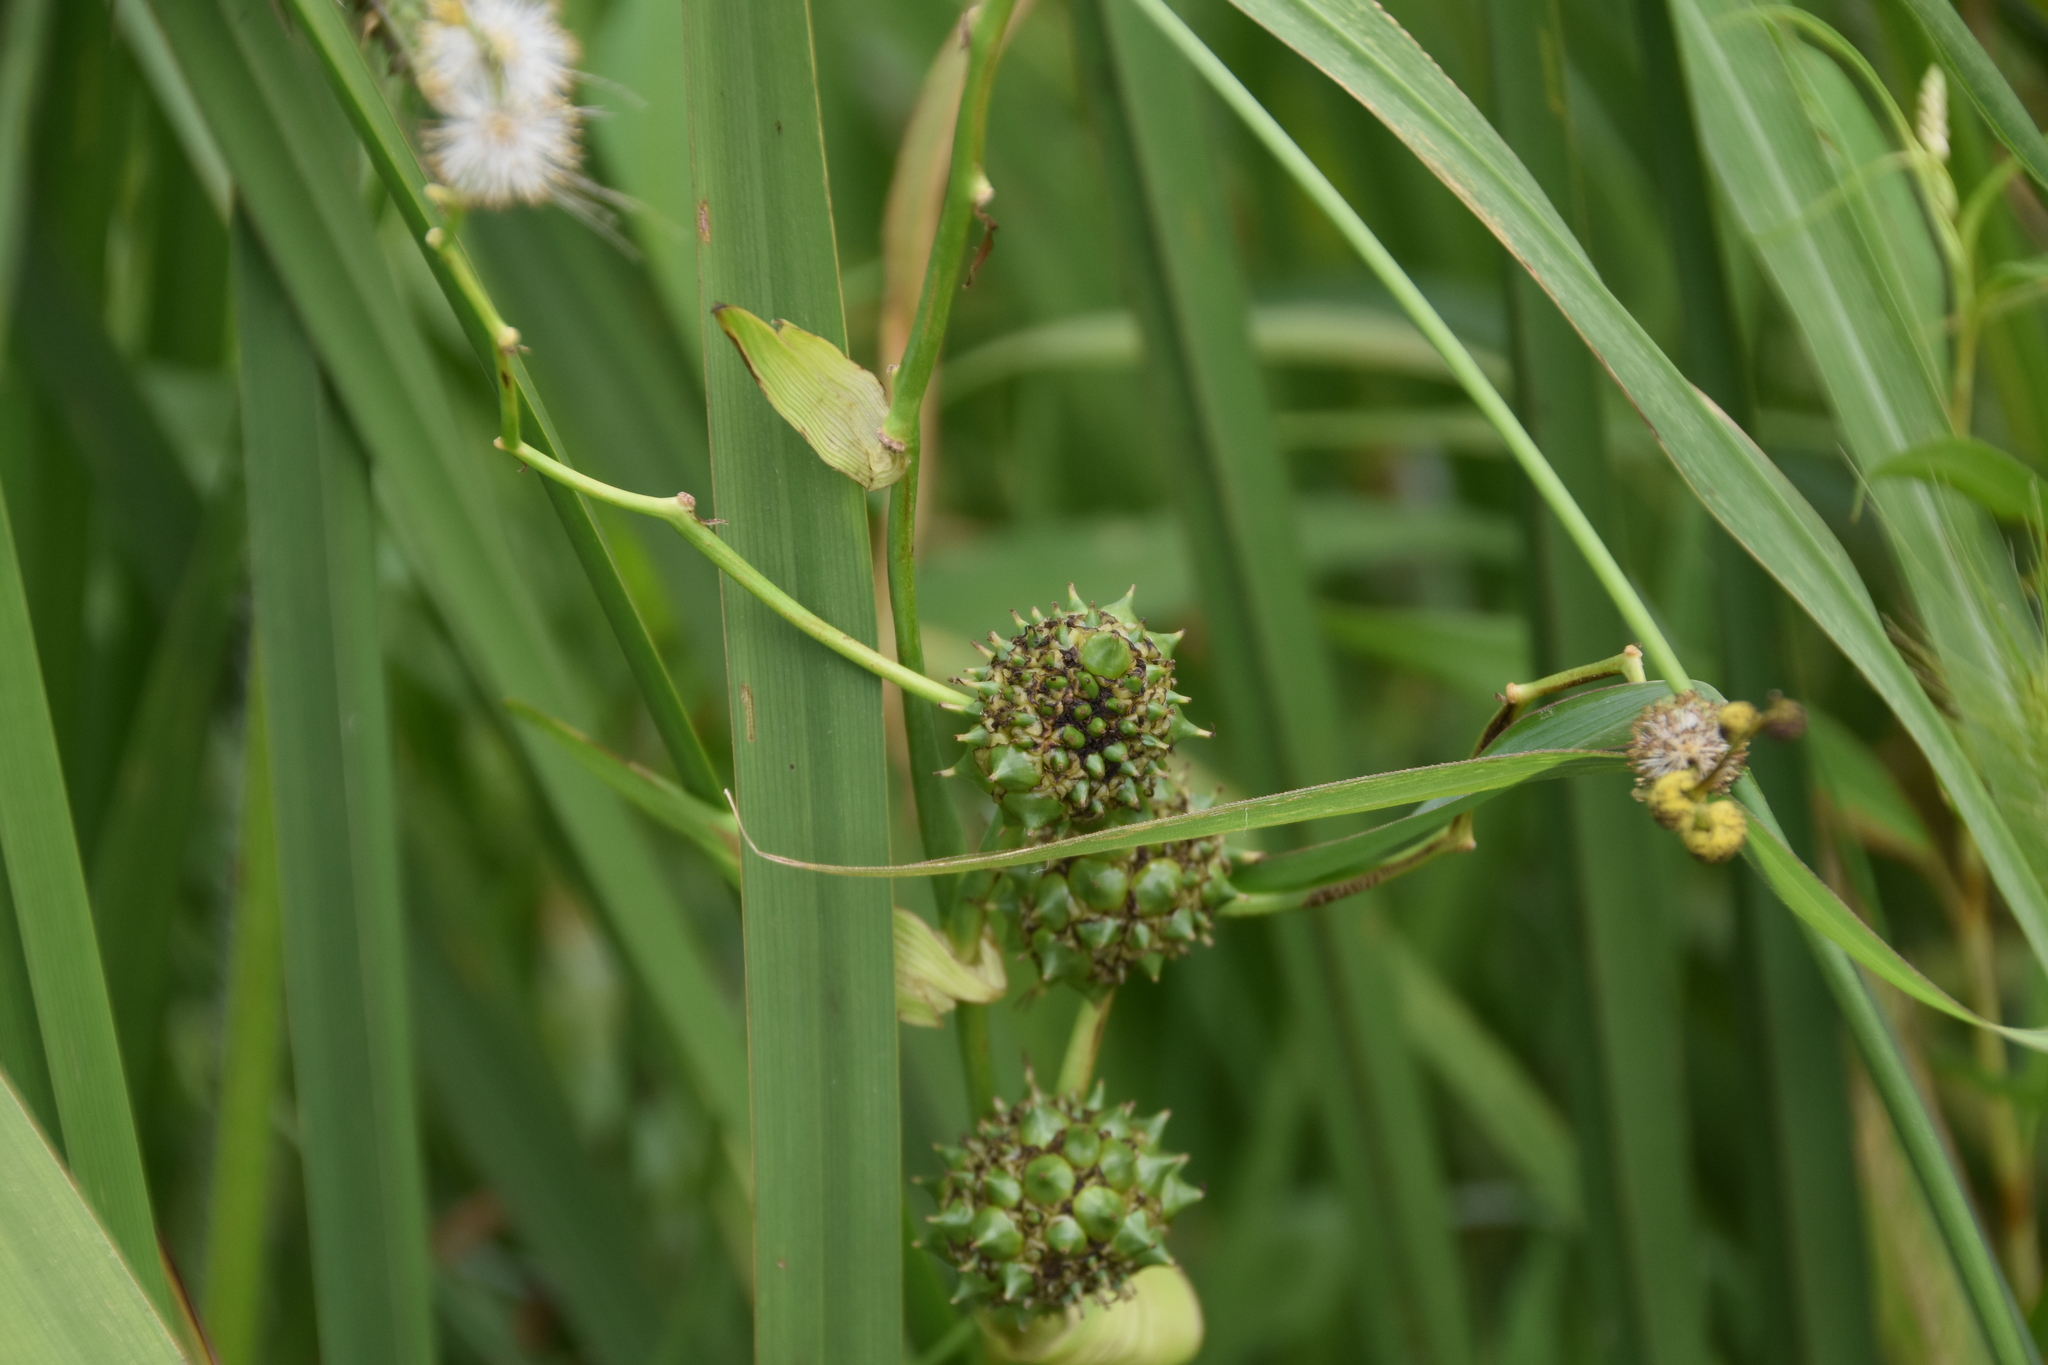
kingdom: Plantae
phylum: Tracheophyta
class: Liliopsida
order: Poales
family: Typhaceae
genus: Sparganium
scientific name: Sparganium eurycarpum
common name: Broad-fruited burreed
